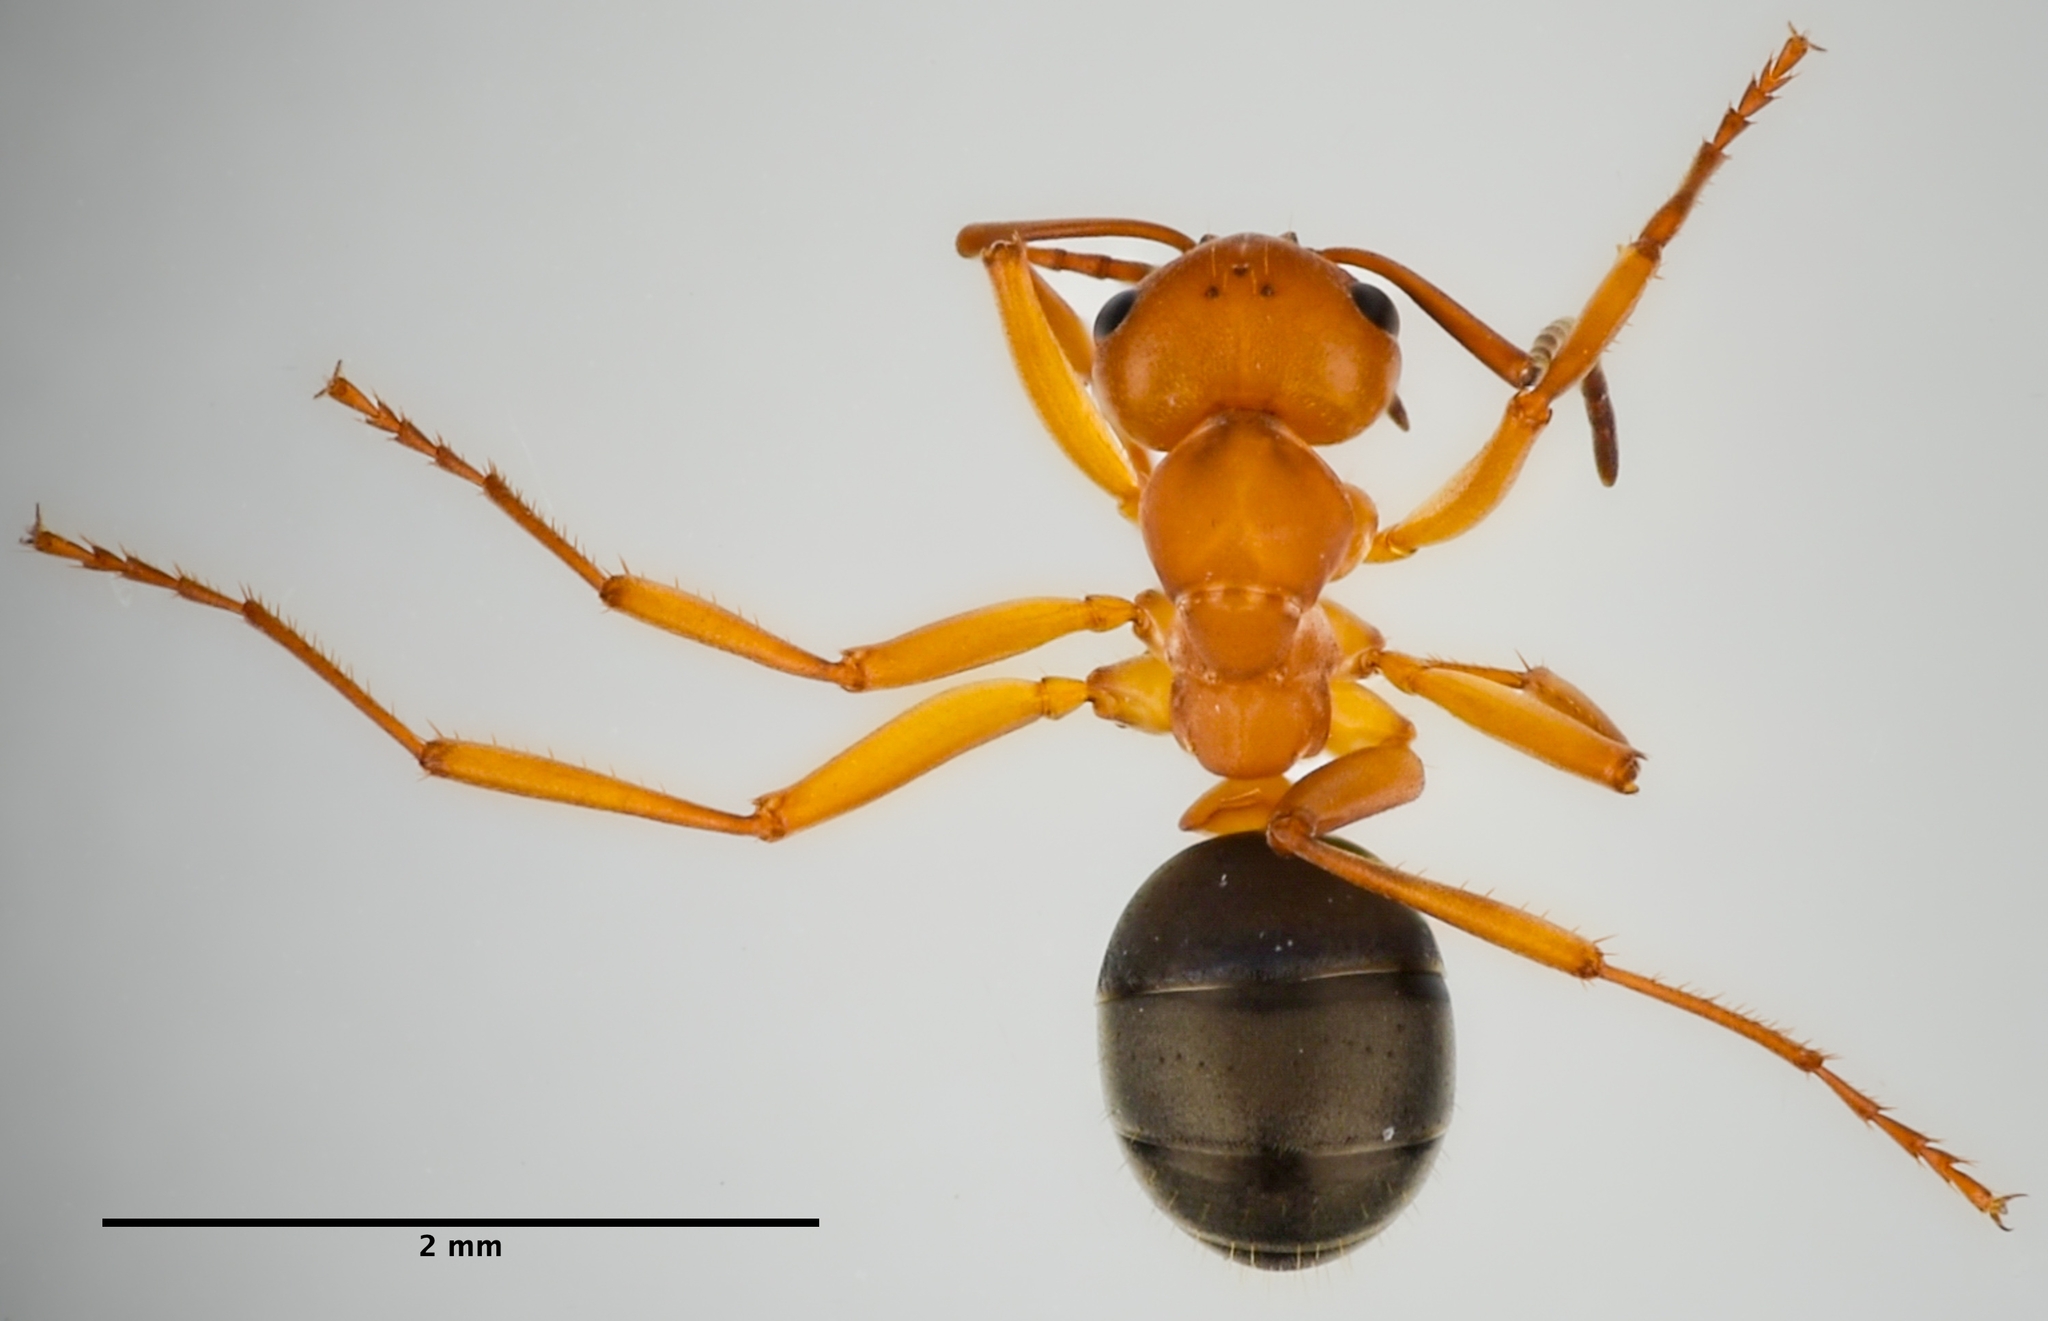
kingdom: Animalia
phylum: Arthropoda
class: Insecta
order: Hymenoptera
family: Formicidae
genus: Formica
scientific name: Formica subnitens
